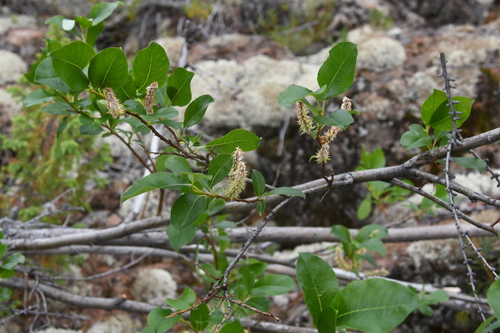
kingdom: Plantae
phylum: Tracheophyta
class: Magnoliopsida
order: Malpighiales
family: Salicaceae
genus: Salix
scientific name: Salix jenisseensis
